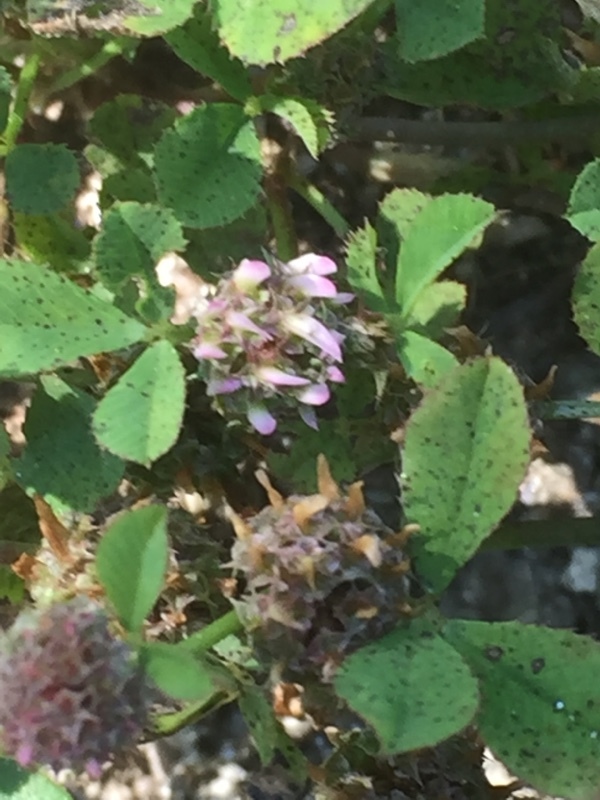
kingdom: Plantae
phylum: Tracheophyta
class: Magnoliopsida
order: Fabales
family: Fabaceae
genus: Trifolium
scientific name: Trifolium glomeratum
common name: Clustered clover
